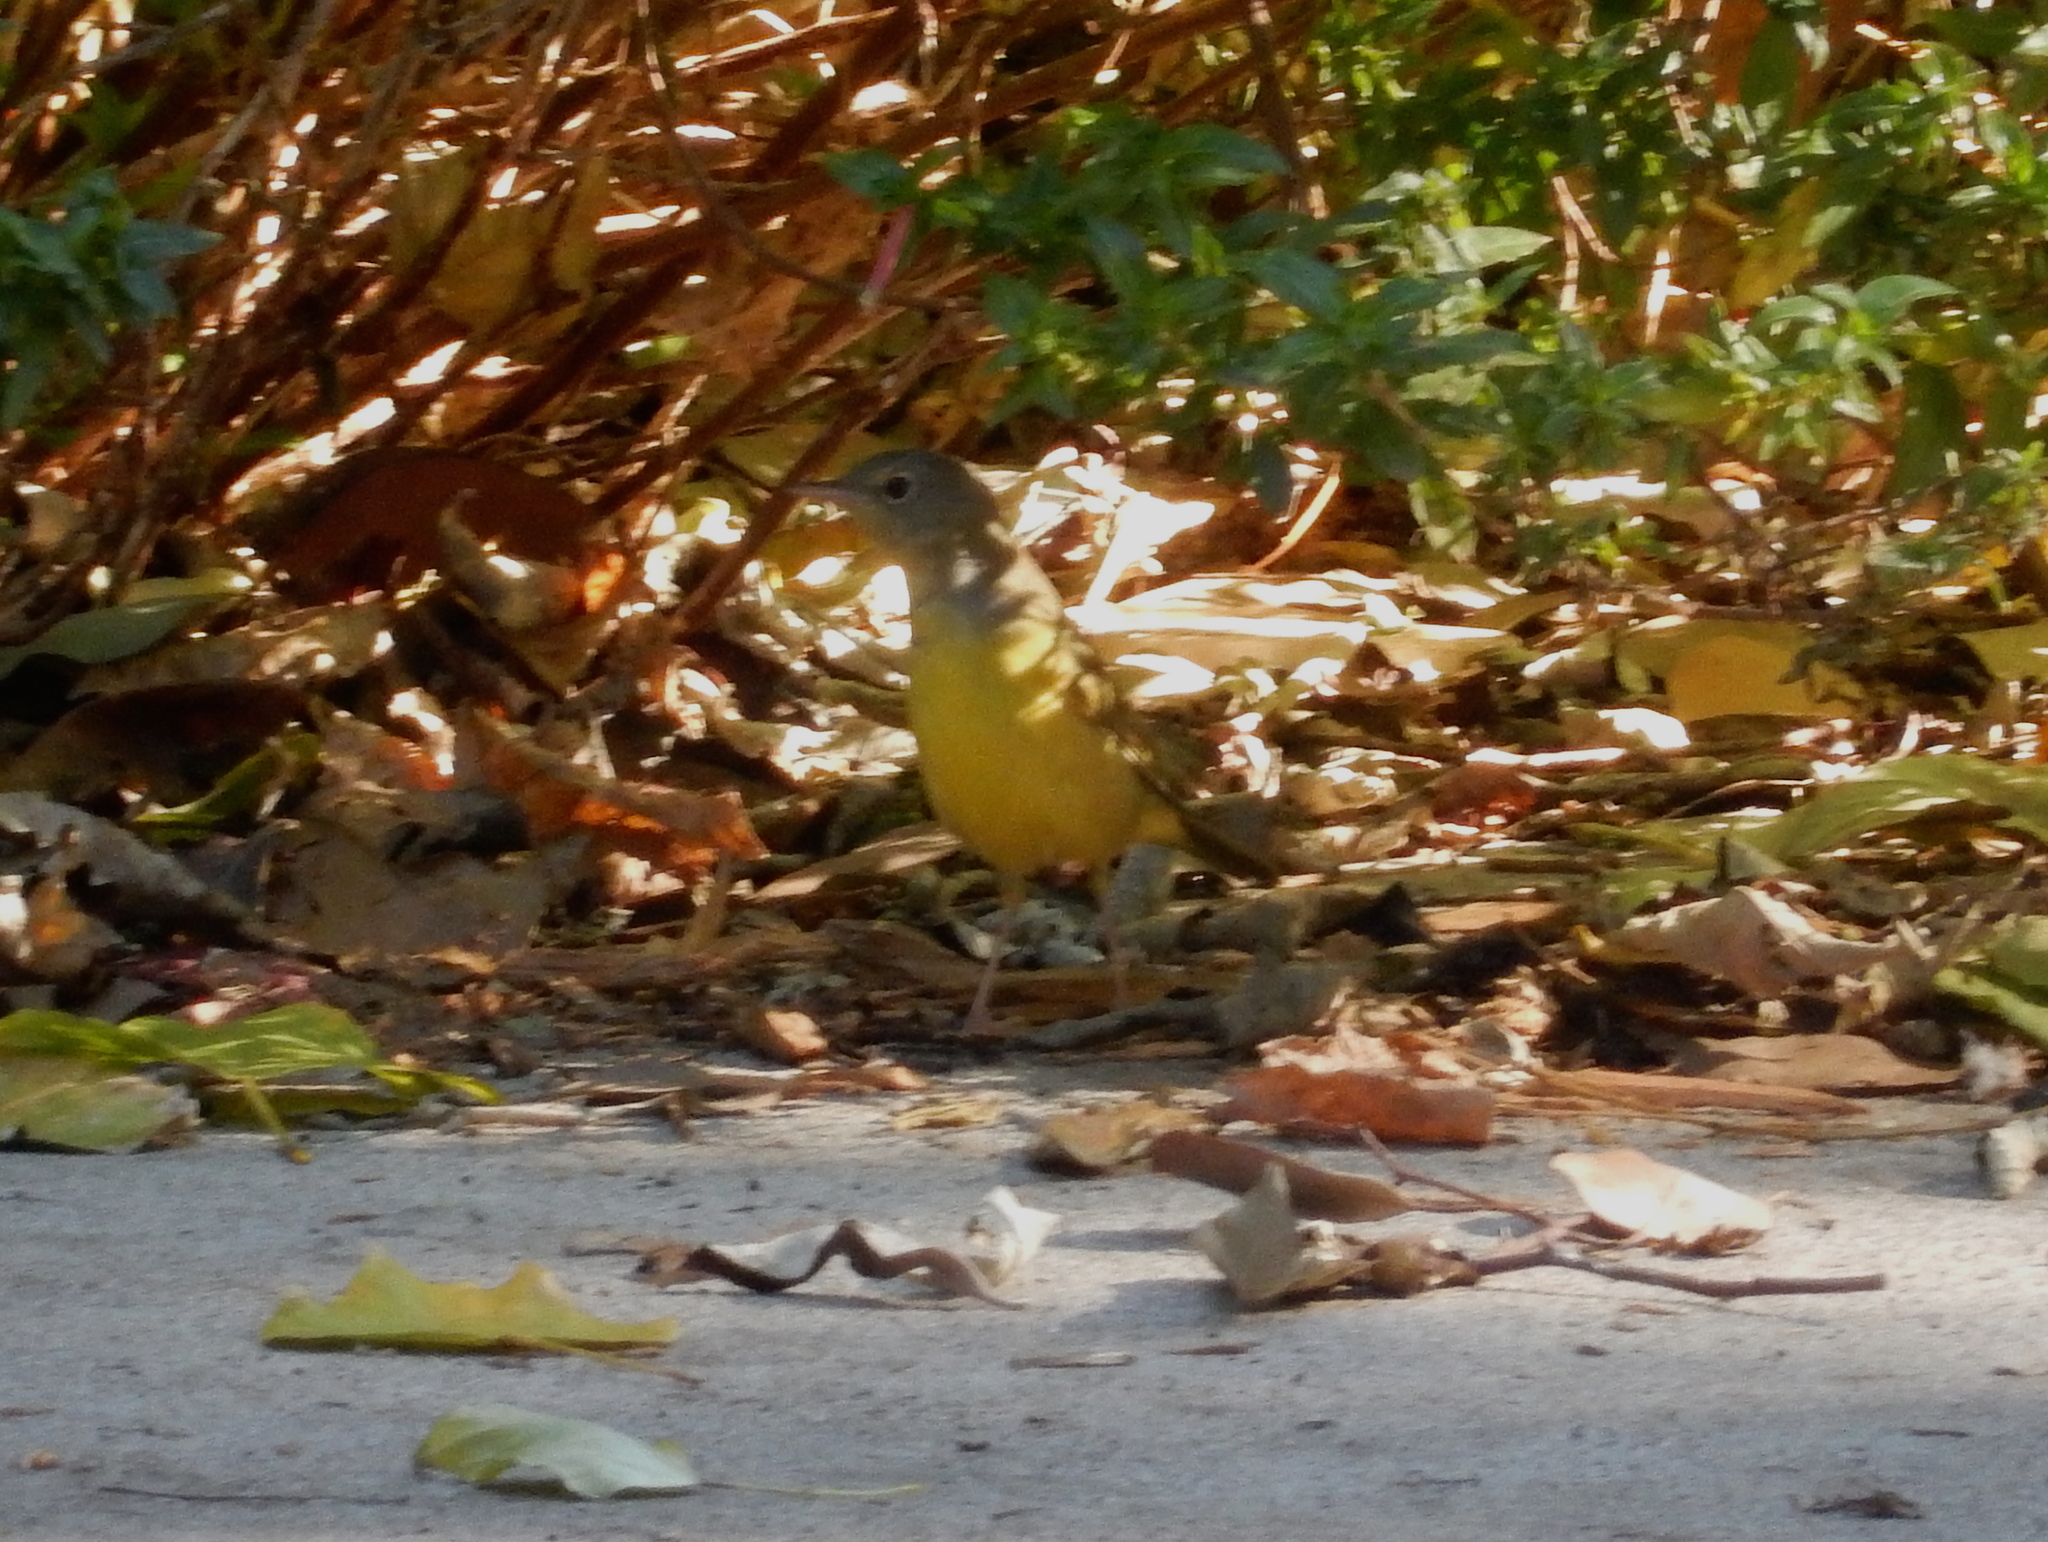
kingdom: Animalia
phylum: Chordata
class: Aves
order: Passeriformes
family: Parulidae
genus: Geothlypis
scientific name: Geothlypis philadelphia
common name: Mourning warbler
